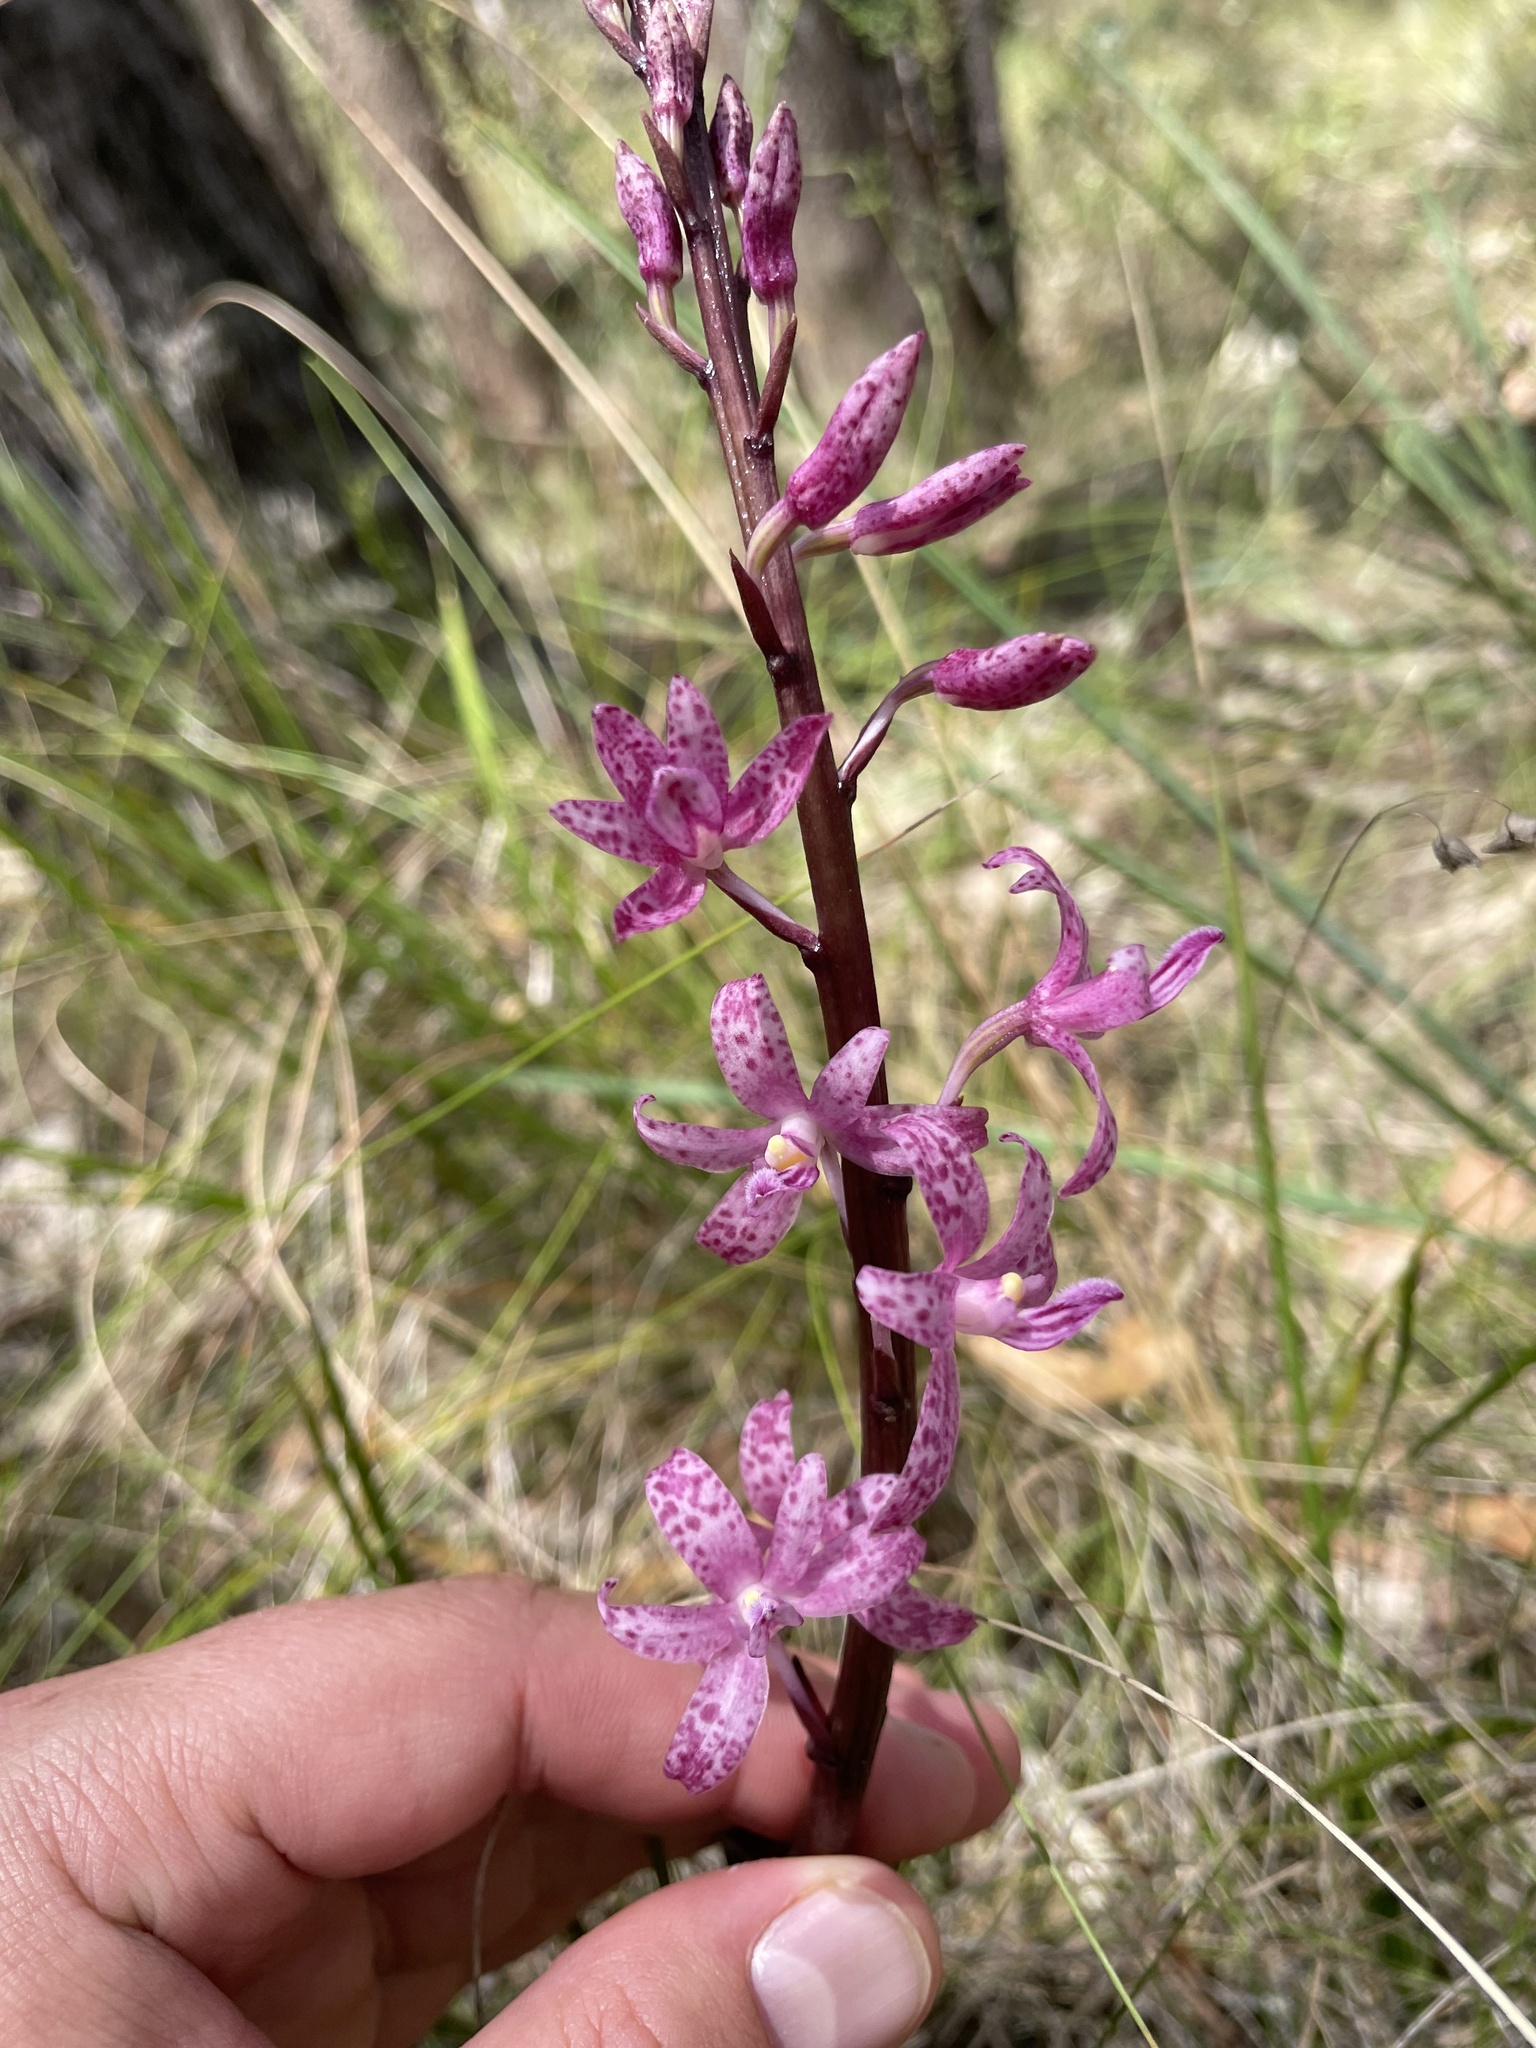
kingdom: Plantae
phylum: Tracheophyta
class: Liliopsida
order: Asparagales
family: Orchidaceae
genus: Dipodium
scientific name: Dipodium roseum
